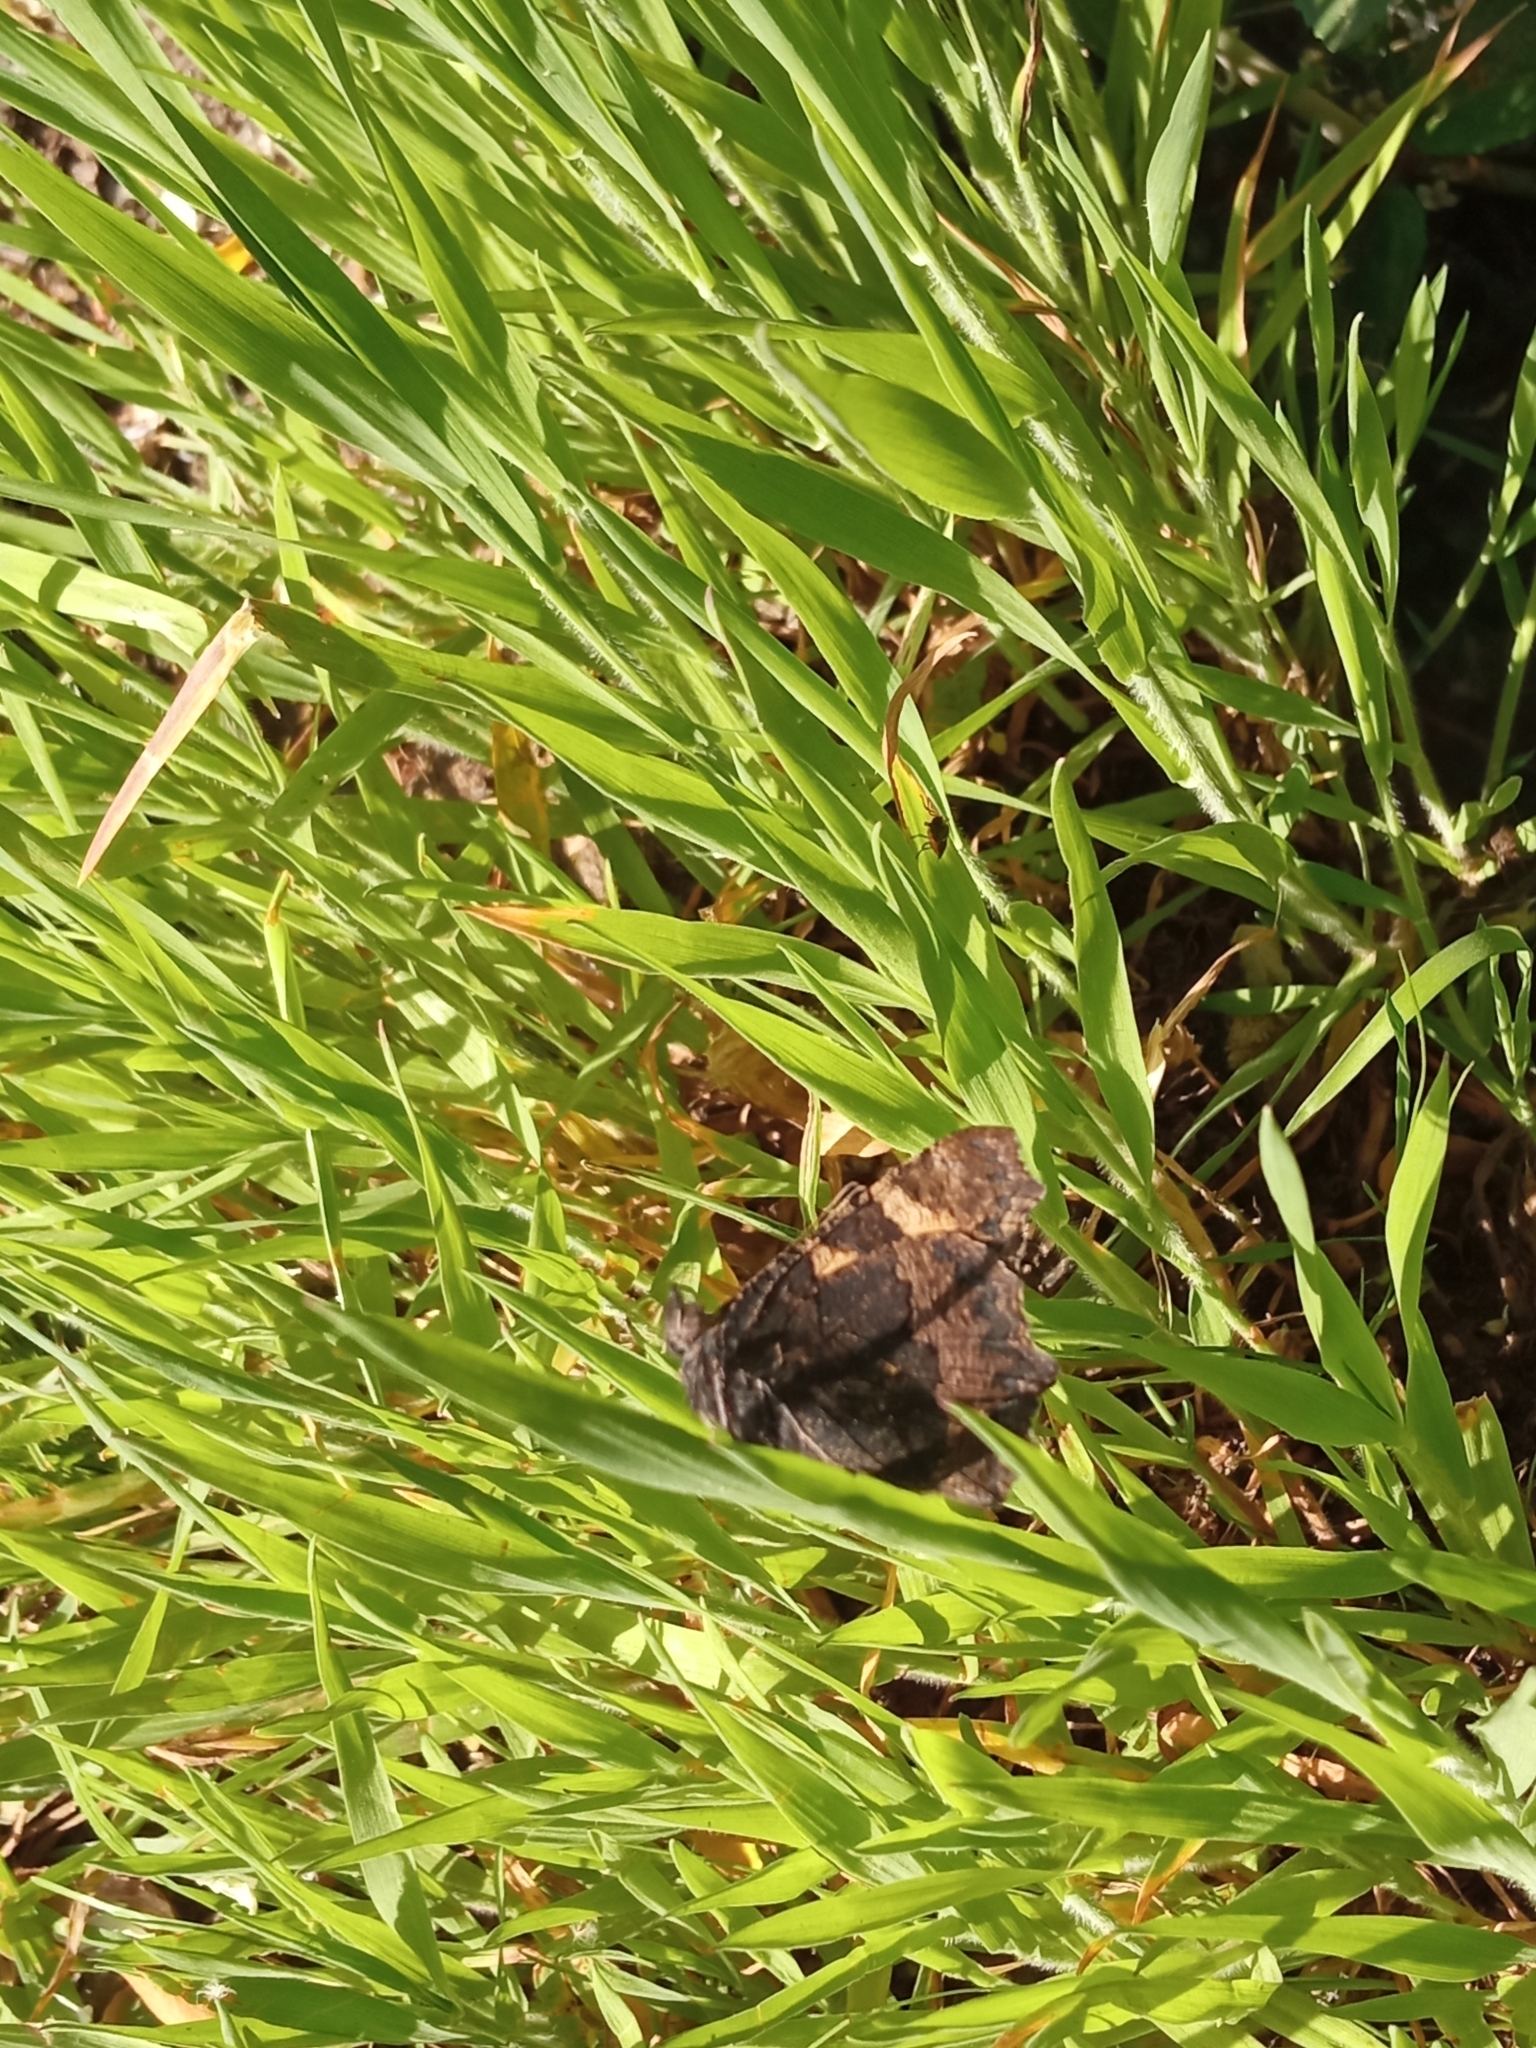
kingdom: Animalia
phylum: Arthropoda
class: Insecta
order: Lepidoptera
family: Nymphalidae
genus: Aglais
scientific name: Aglais urticae
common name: Small tortoiseshell
